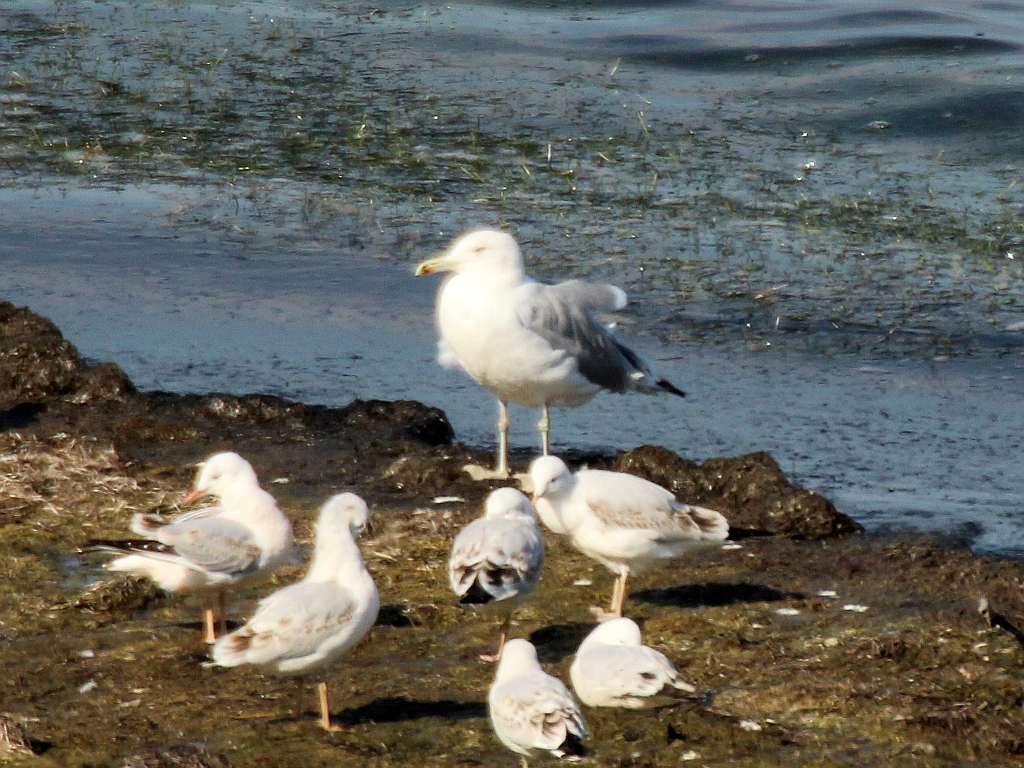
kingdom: Animalia
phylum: Chordata
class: Aves
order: Charadriiformes
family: Laridae
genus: Larus
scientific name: Larus cachinnans
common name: Caspian gull
